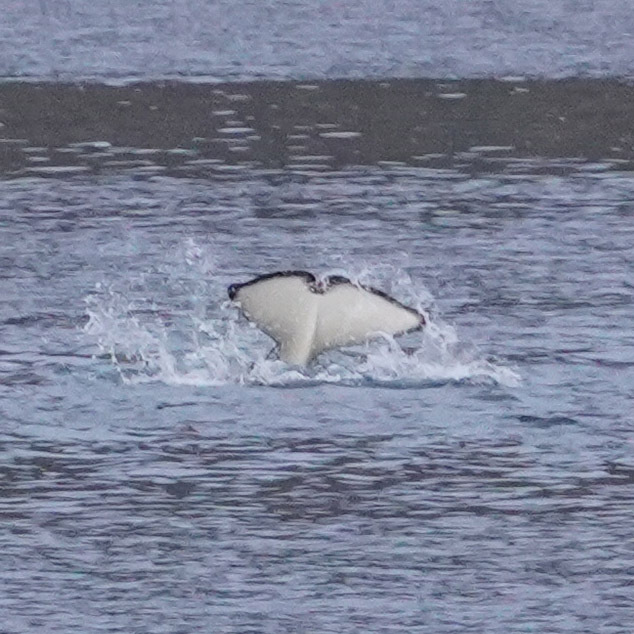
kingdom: Animalia
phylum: Chordata
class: Mammalia
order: Cetacea
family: Delphinidae
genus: Orcinus
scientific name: Orcinus orca
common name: Killer whale
